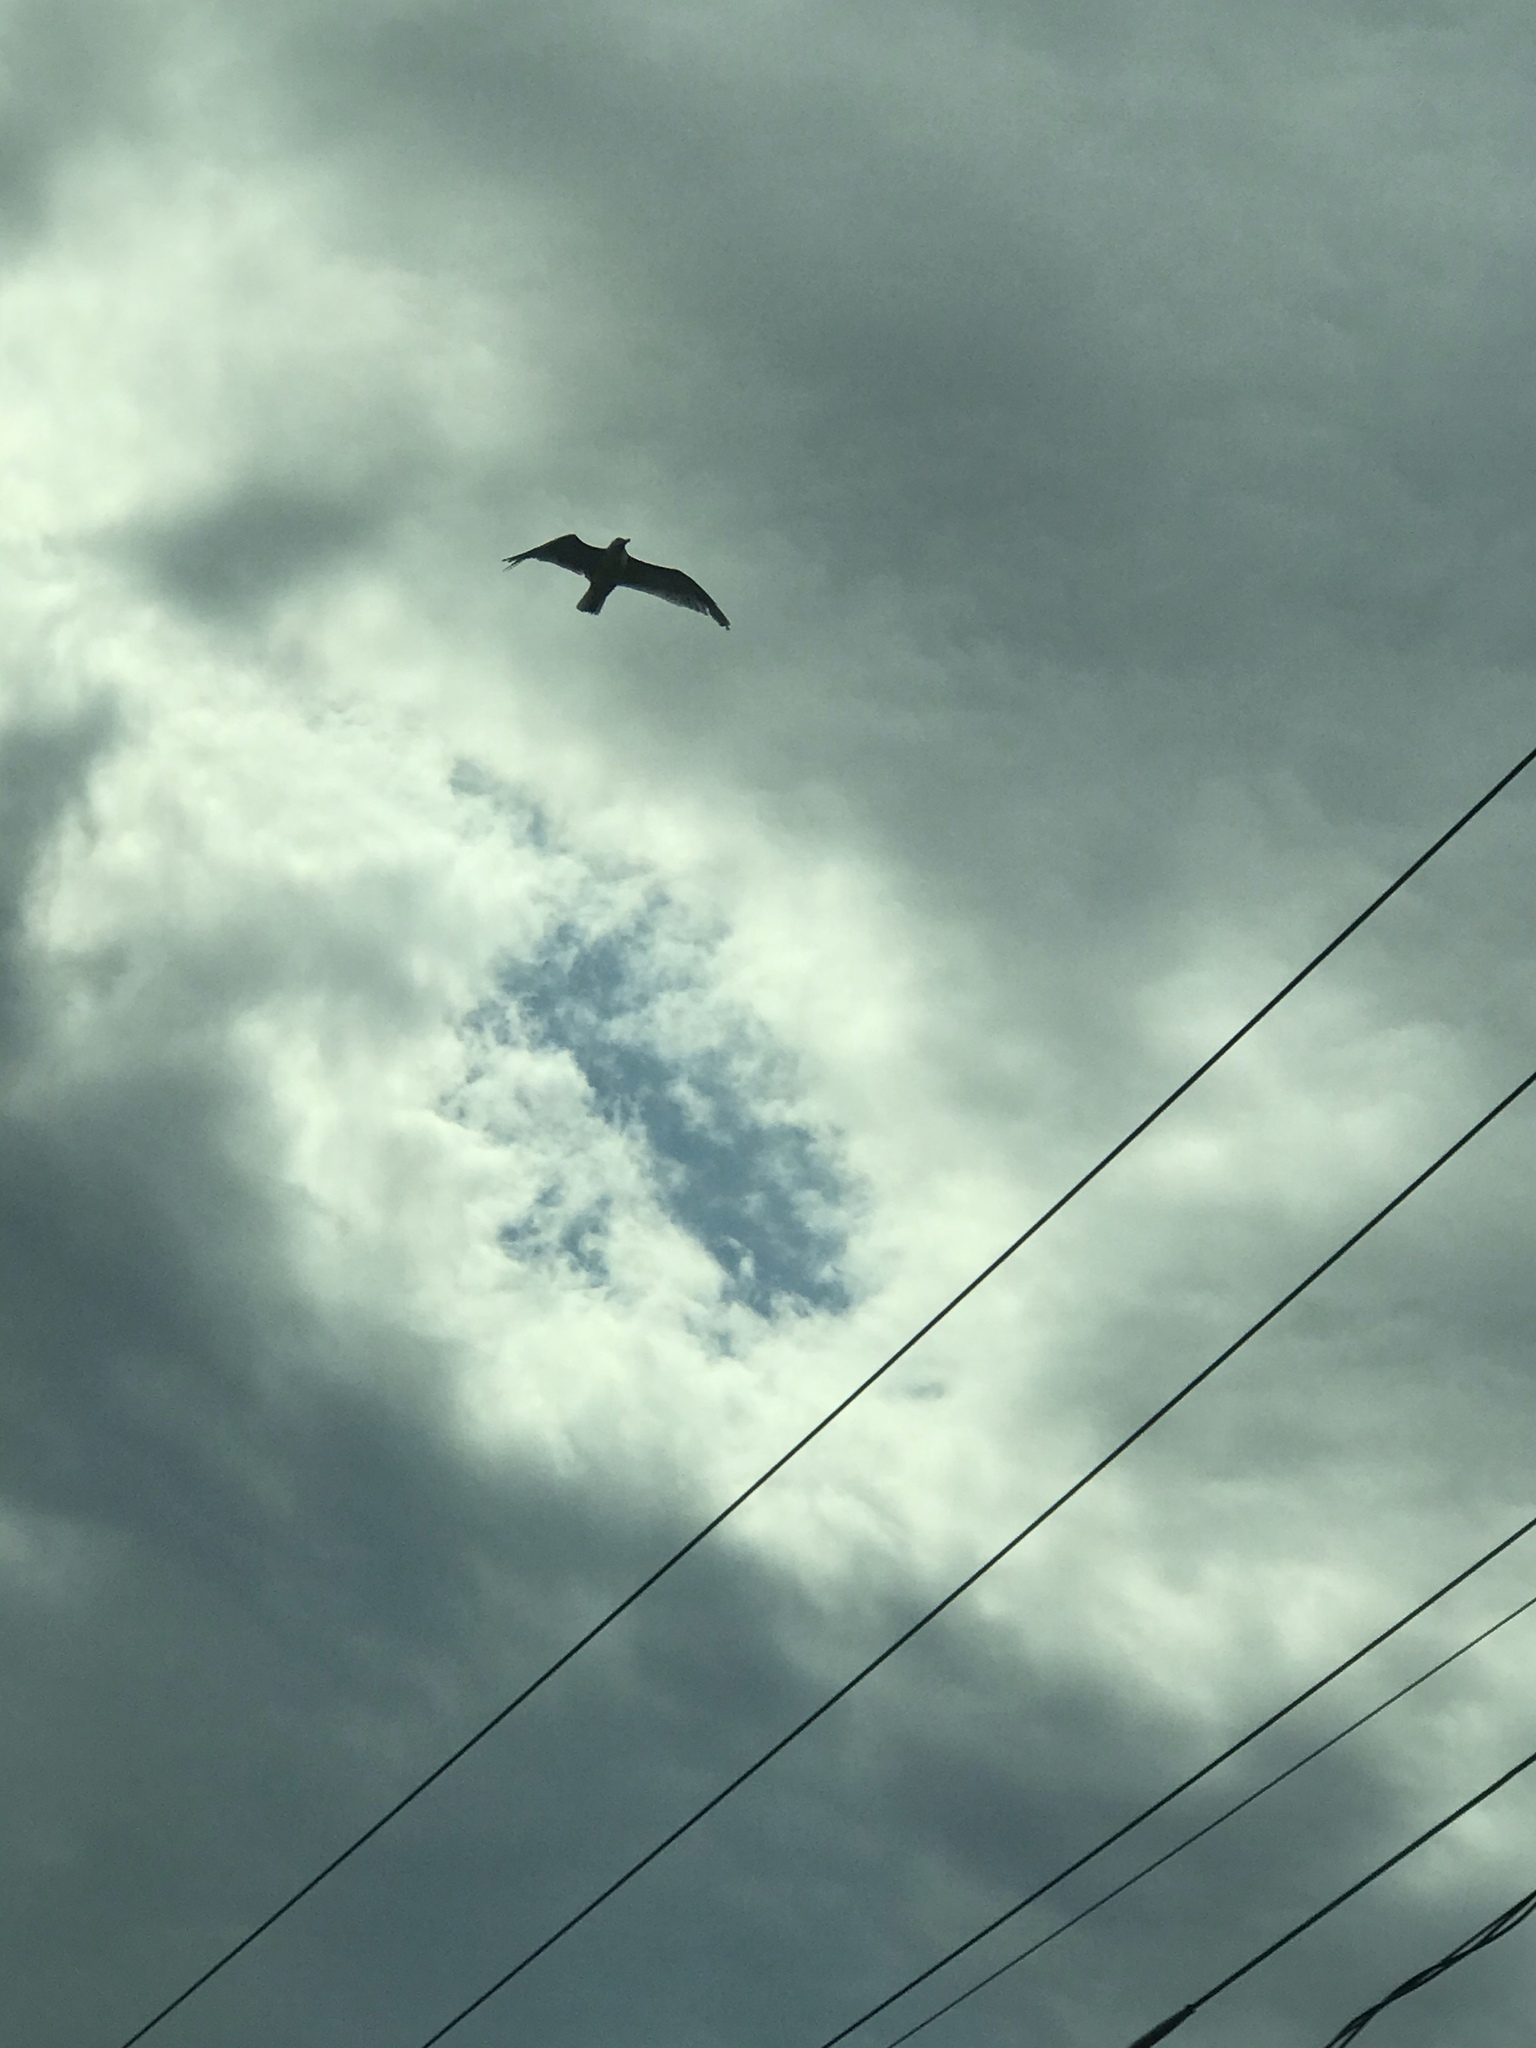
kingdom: Animalia
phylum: Chordata
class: Aves
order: Charadriiformes
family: Laridae
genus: Larus
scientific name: Larus
